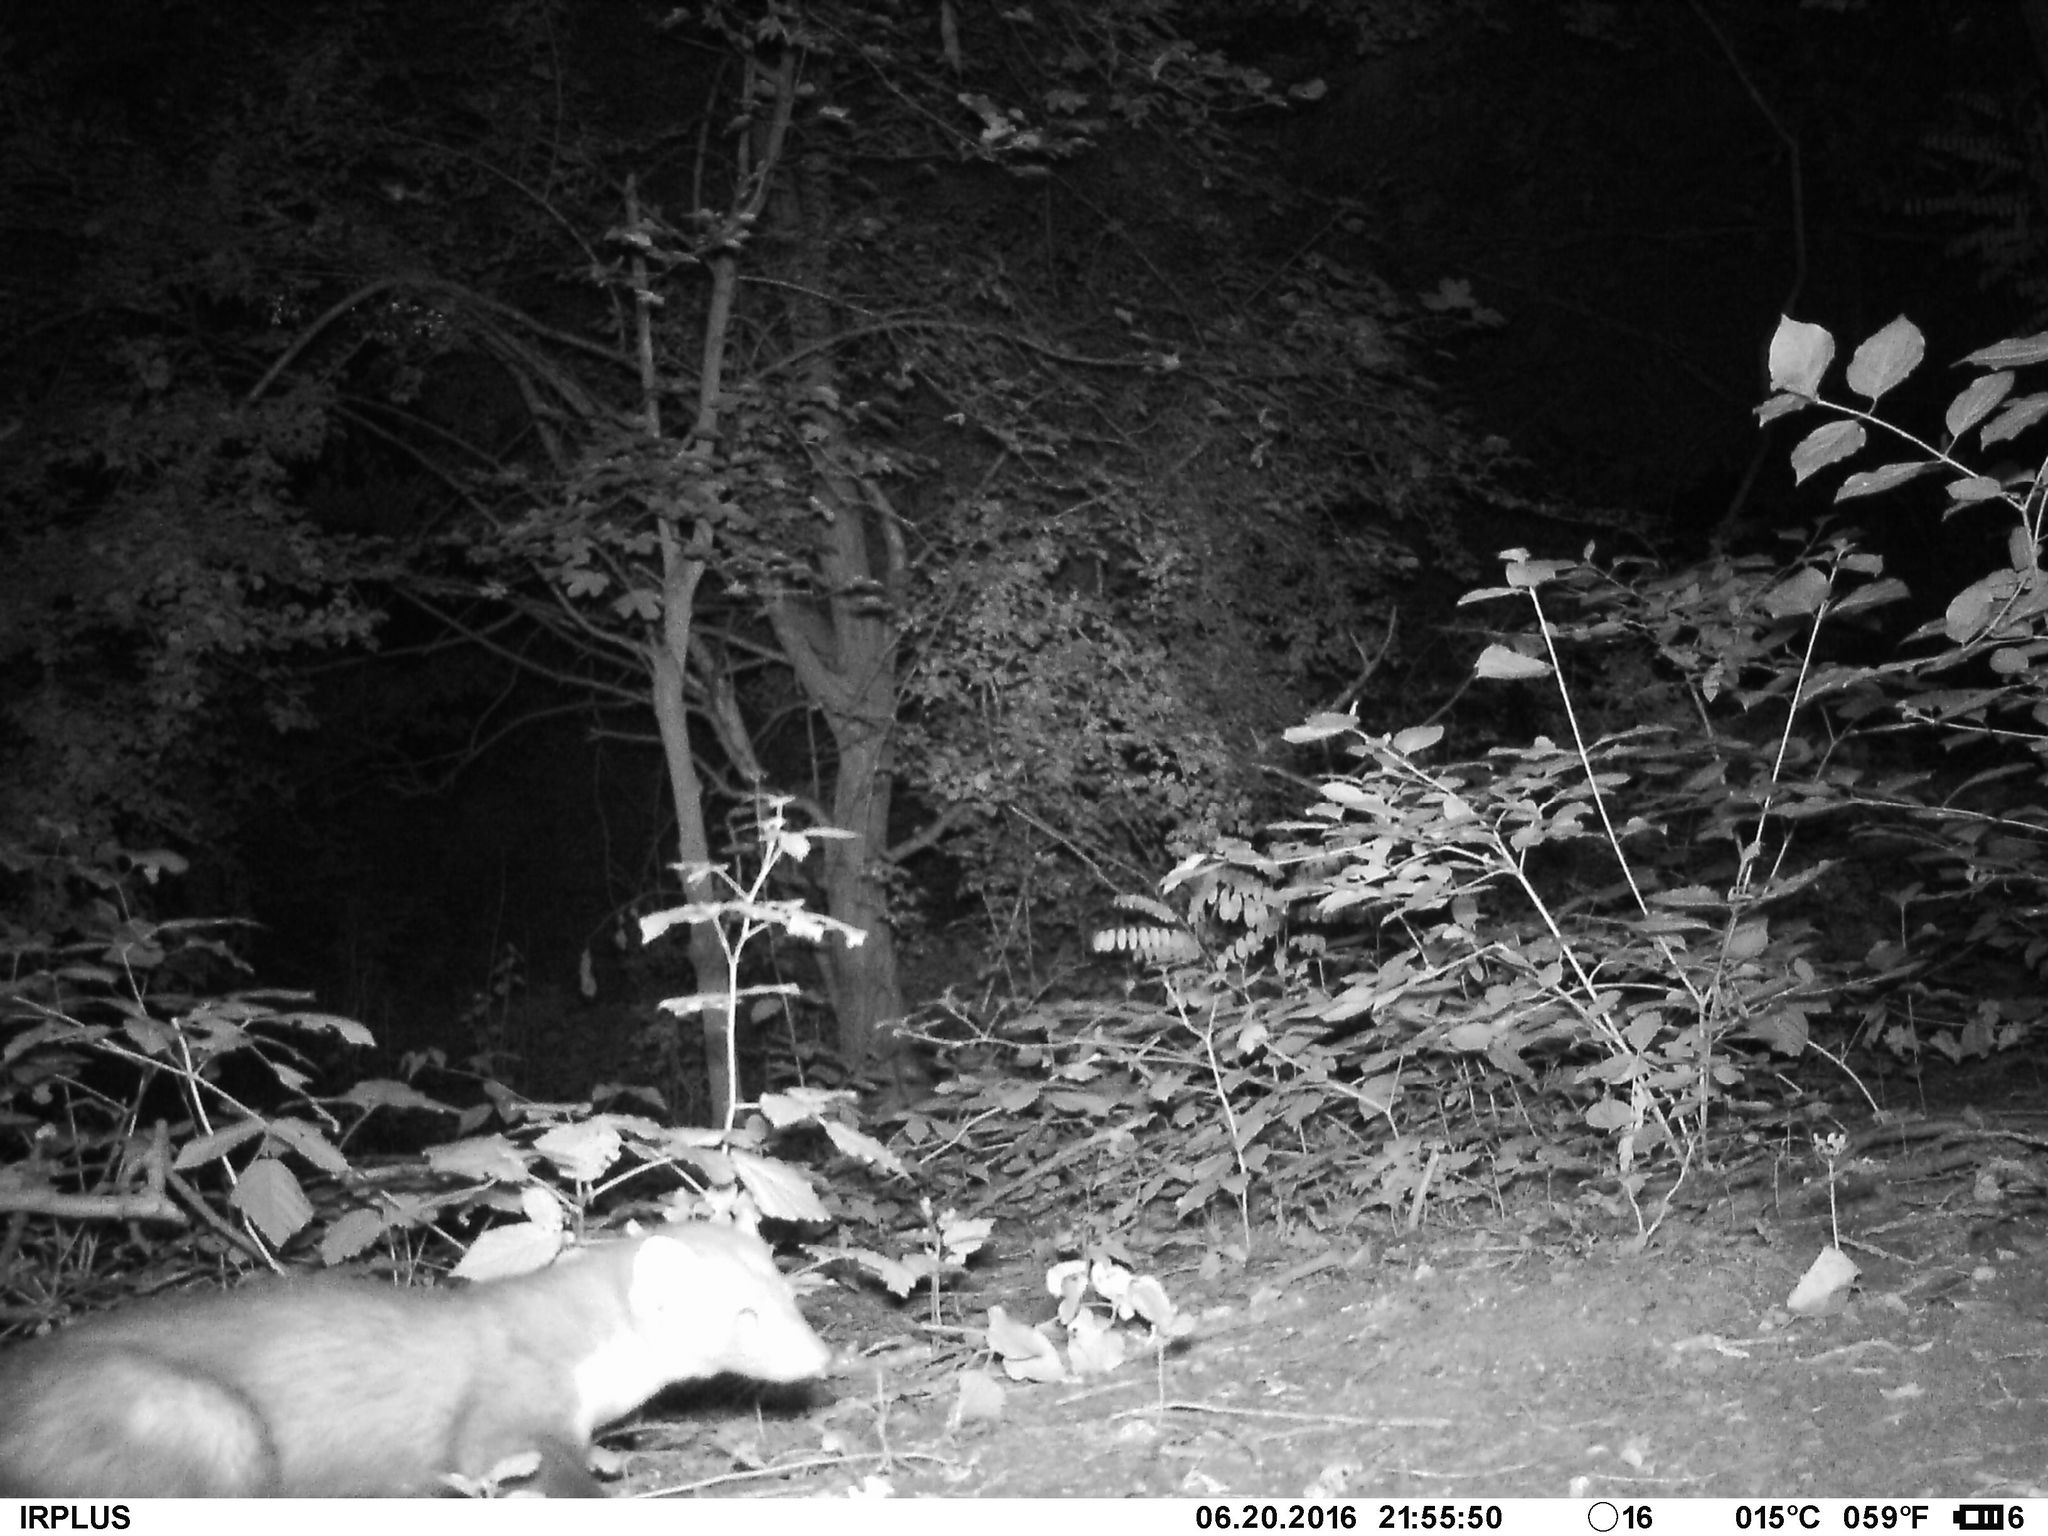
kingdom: Animalia
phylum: Chordata
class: Mammalia
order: Carnivora
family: Mustelidae
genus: Martes
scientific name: Martes foina
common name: Beech marten
